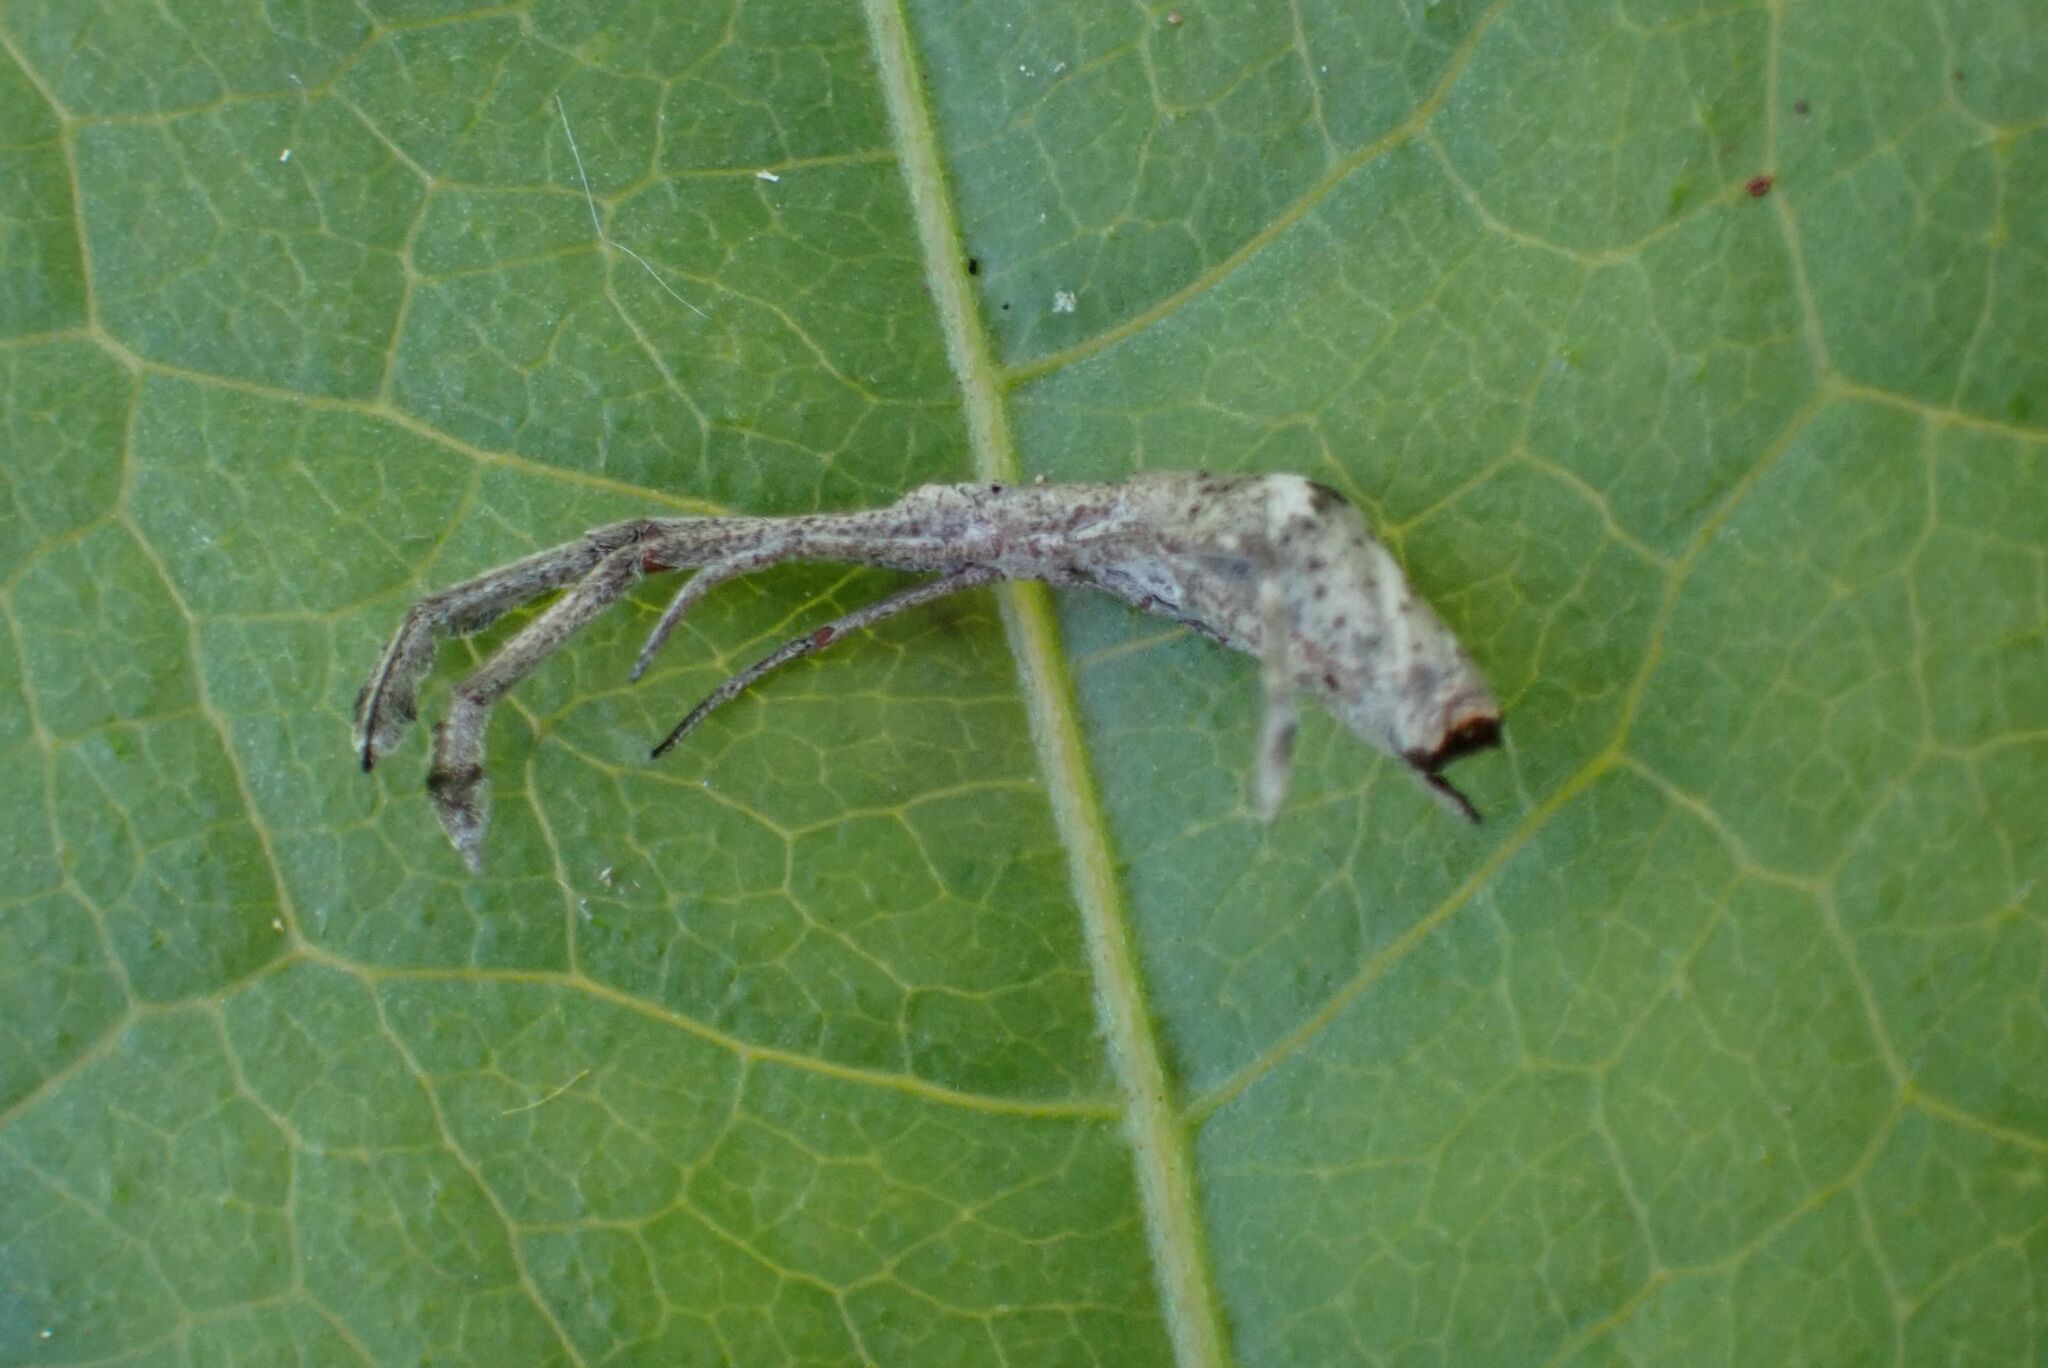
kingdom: Animalia
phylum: Arthropoda
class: Arachnida
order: Araneae
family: Uloboridae
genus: Miagrammopes
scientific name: Miagrammopes constrictus
